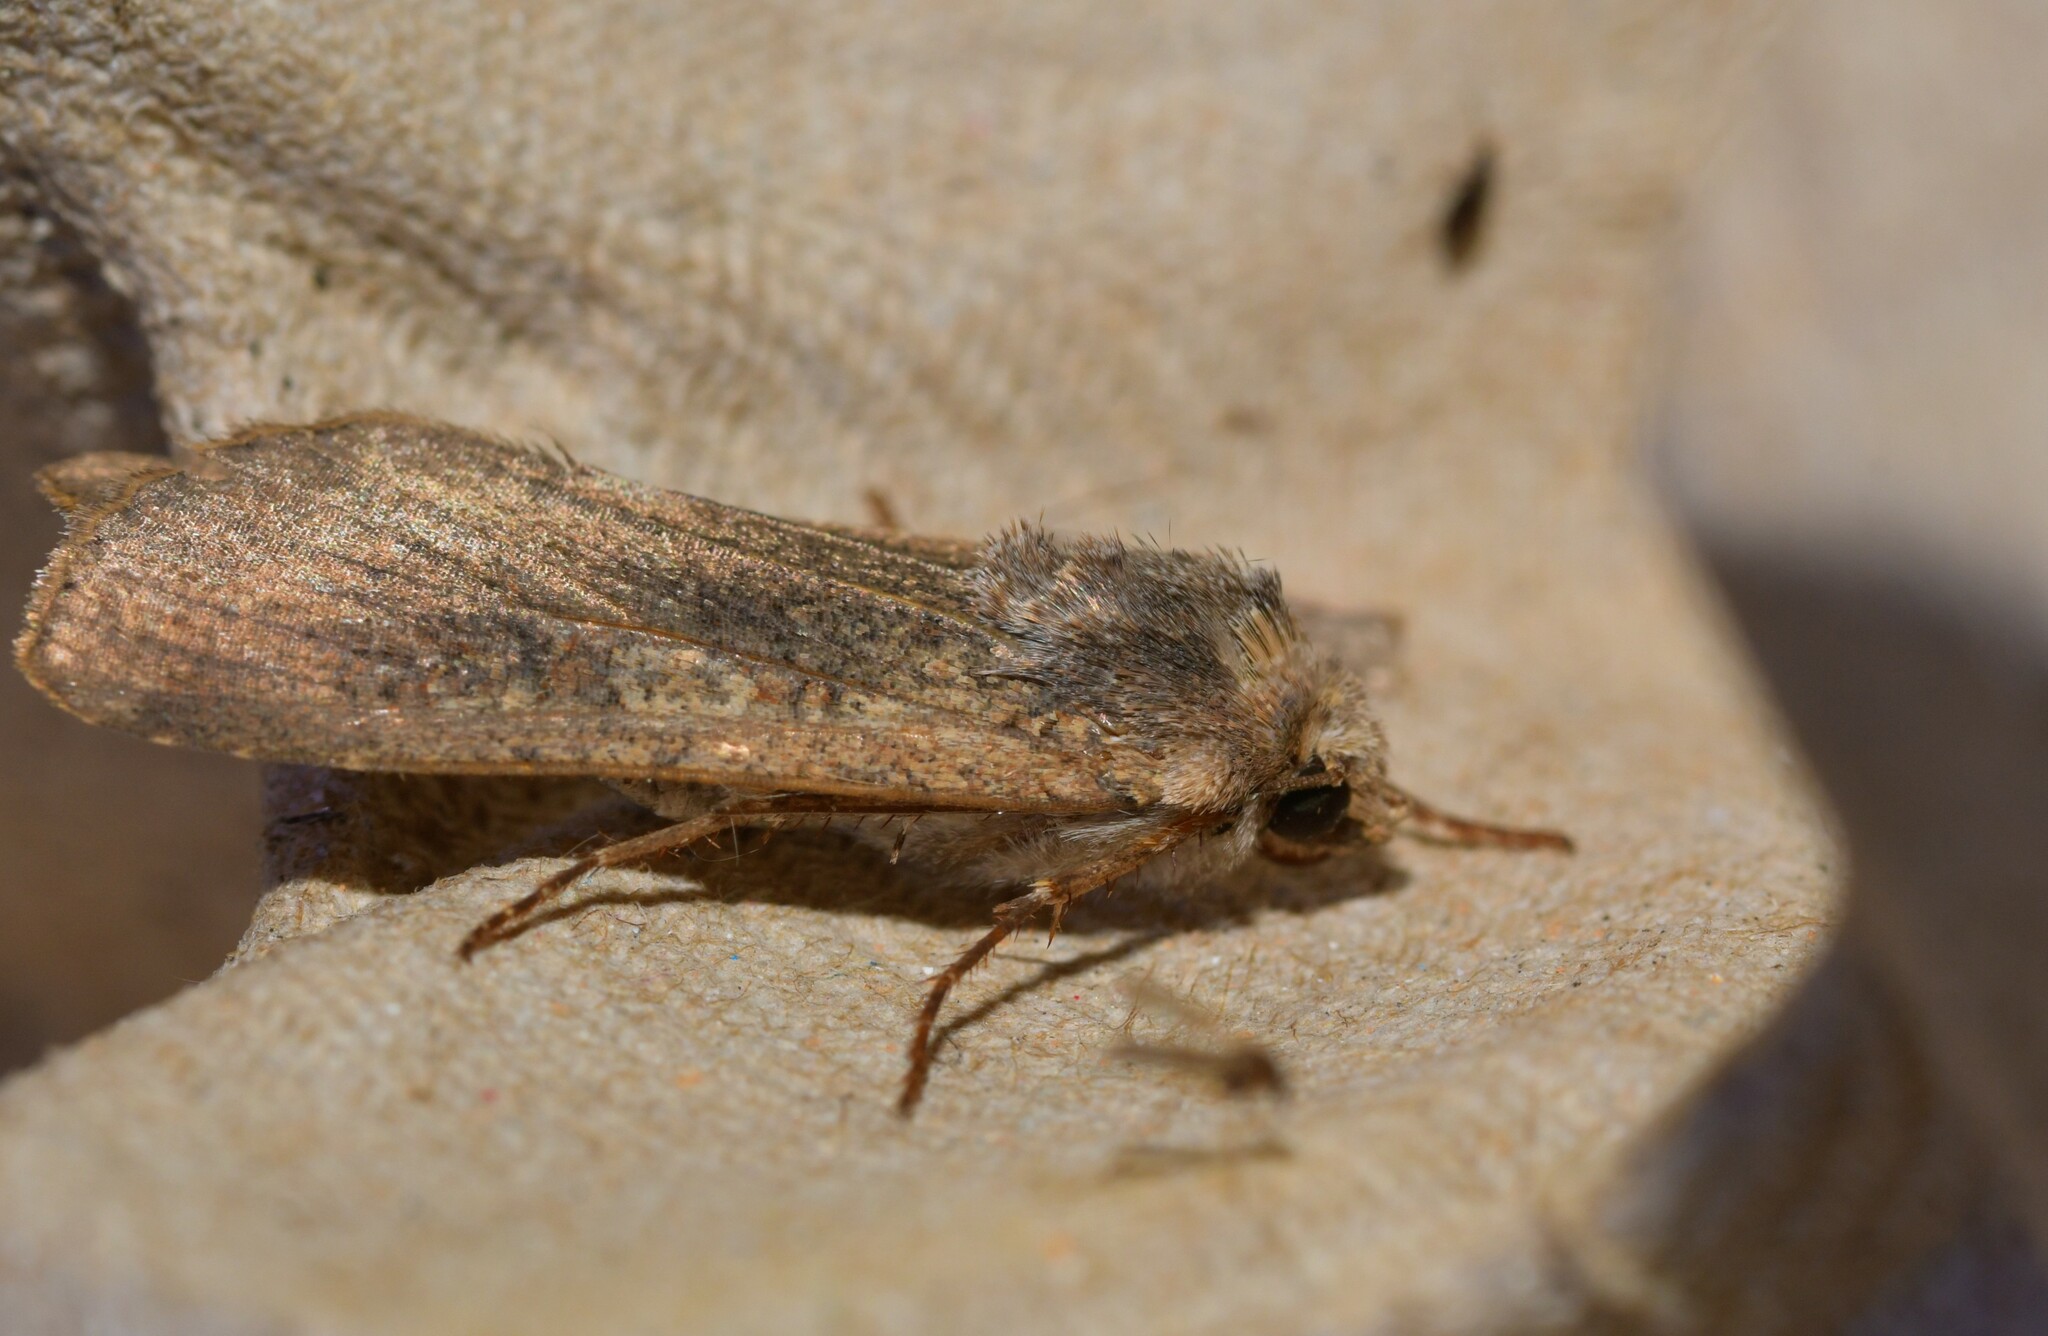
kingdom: Animalia
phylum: Arthropoda
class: Insecta
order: Lepidoptera
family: Noctuidae
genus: Peridroma
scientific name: Peridroma saucia
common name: Pearly underwing
